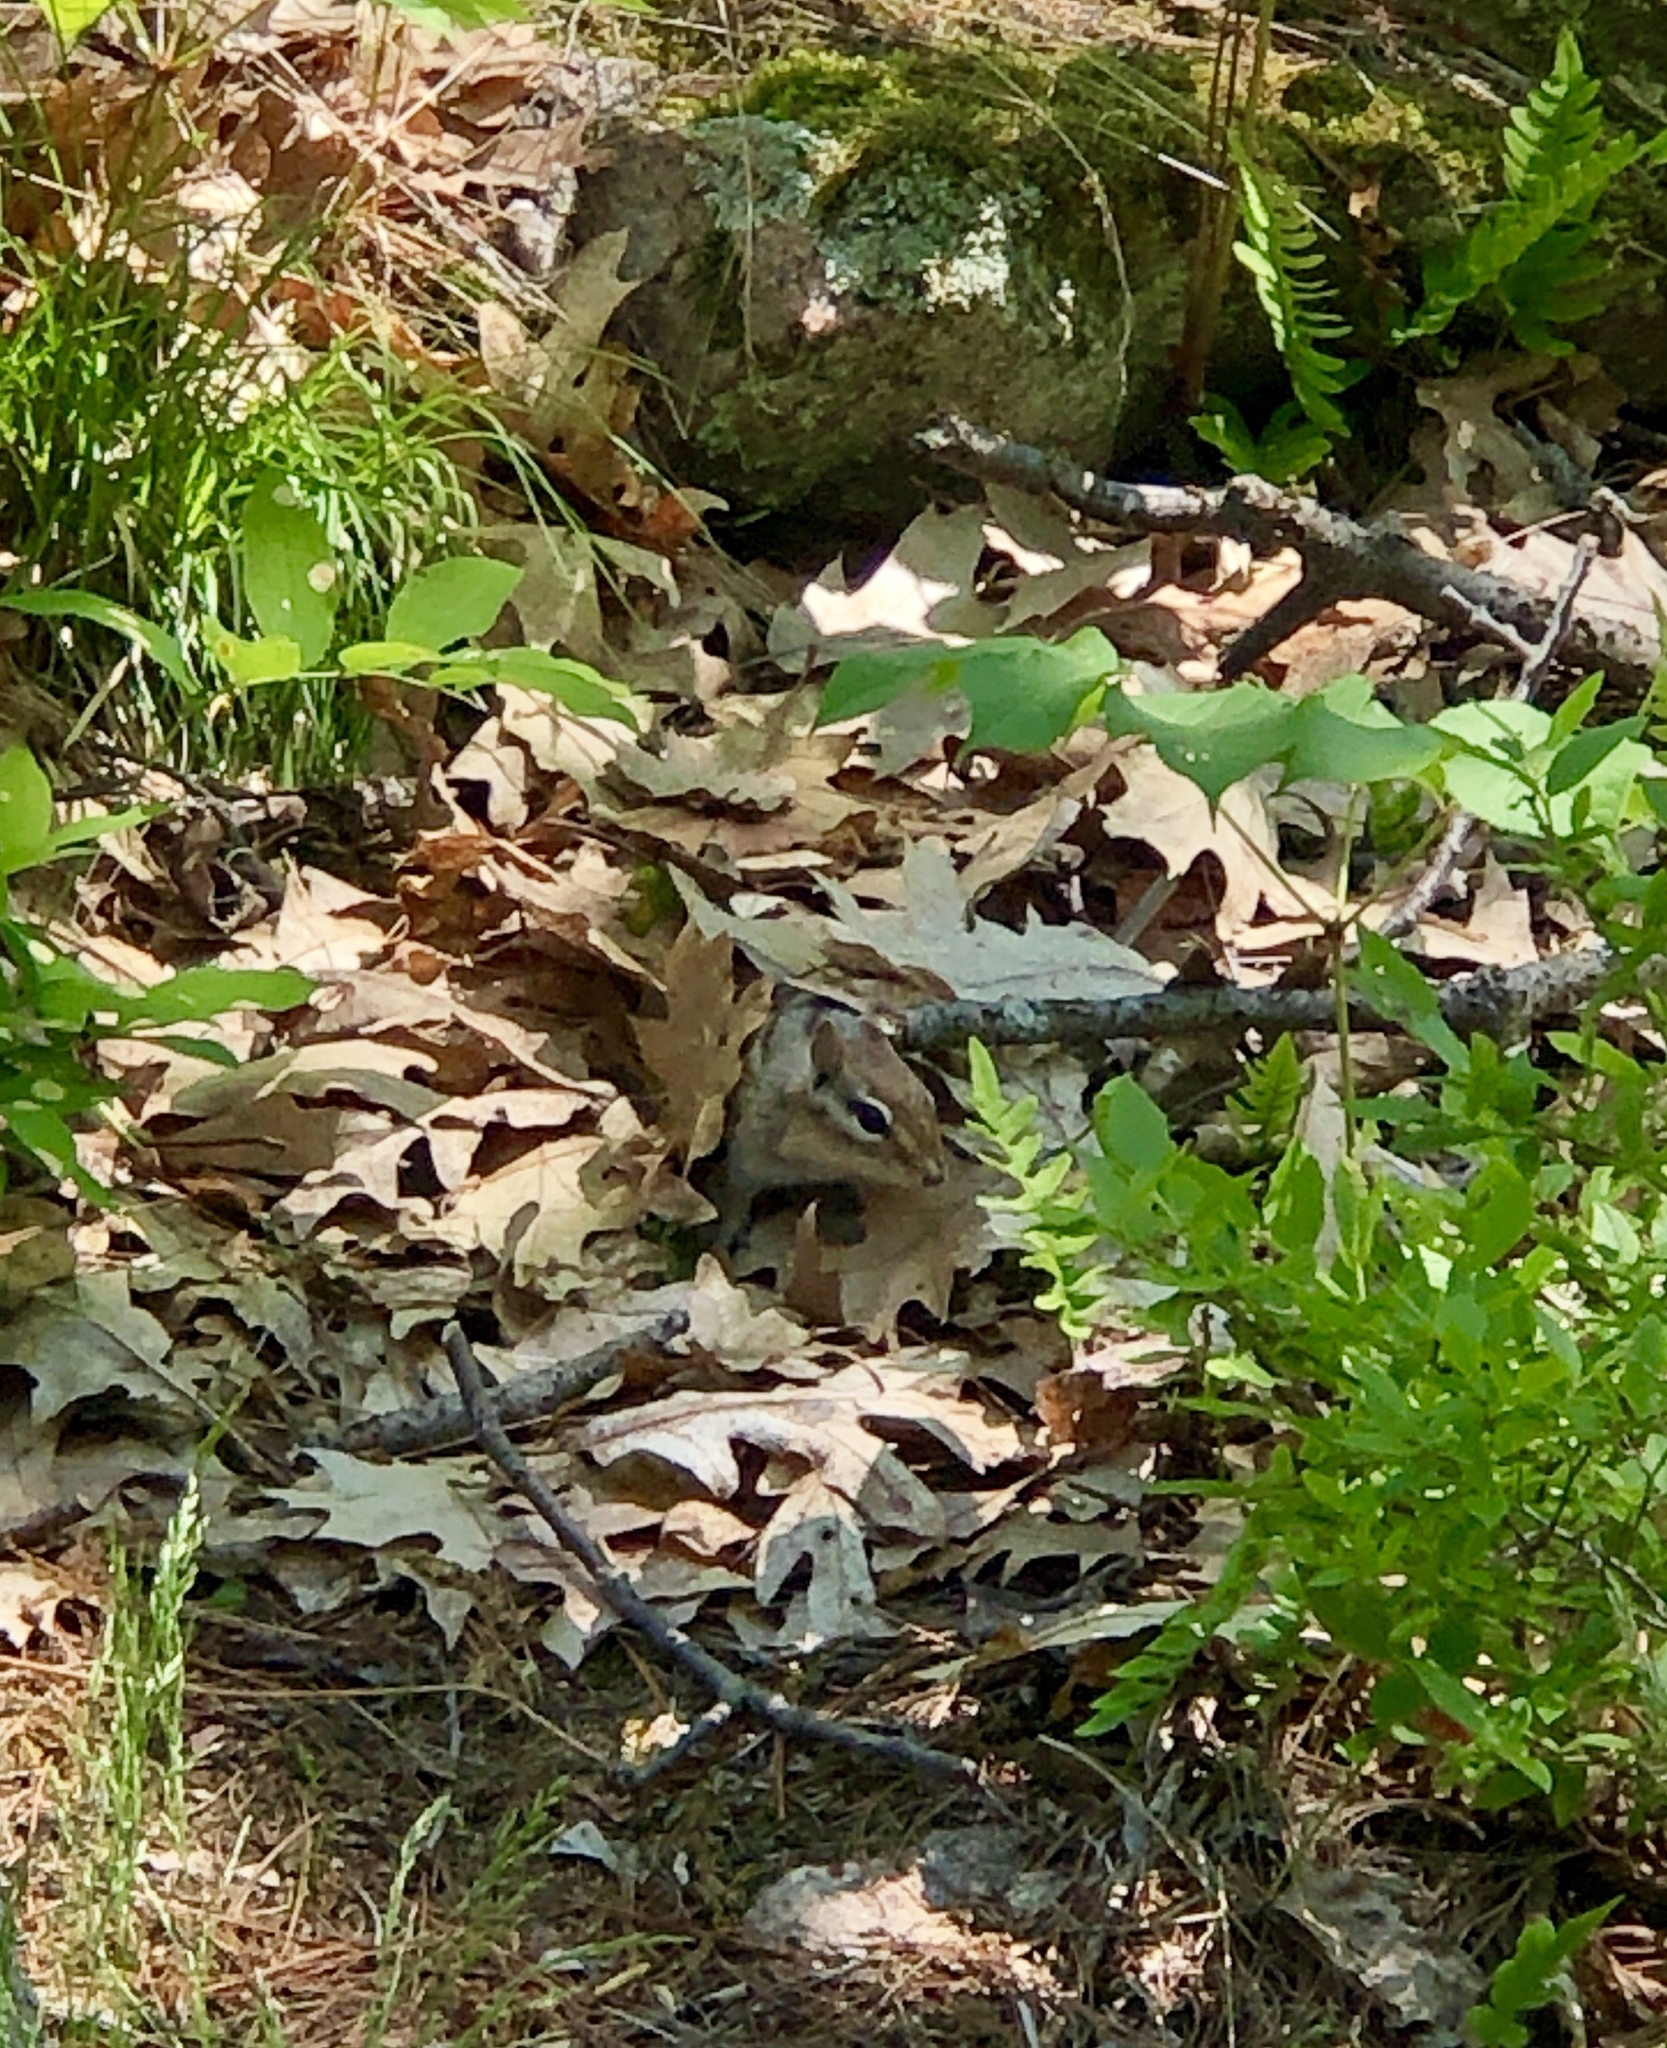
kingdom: Animalia
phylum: Chordata
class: Mammalia
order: Rodentia
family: Sciuridae
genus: Tamias
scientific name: Tamias striatus
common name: Eastern chipmunk
